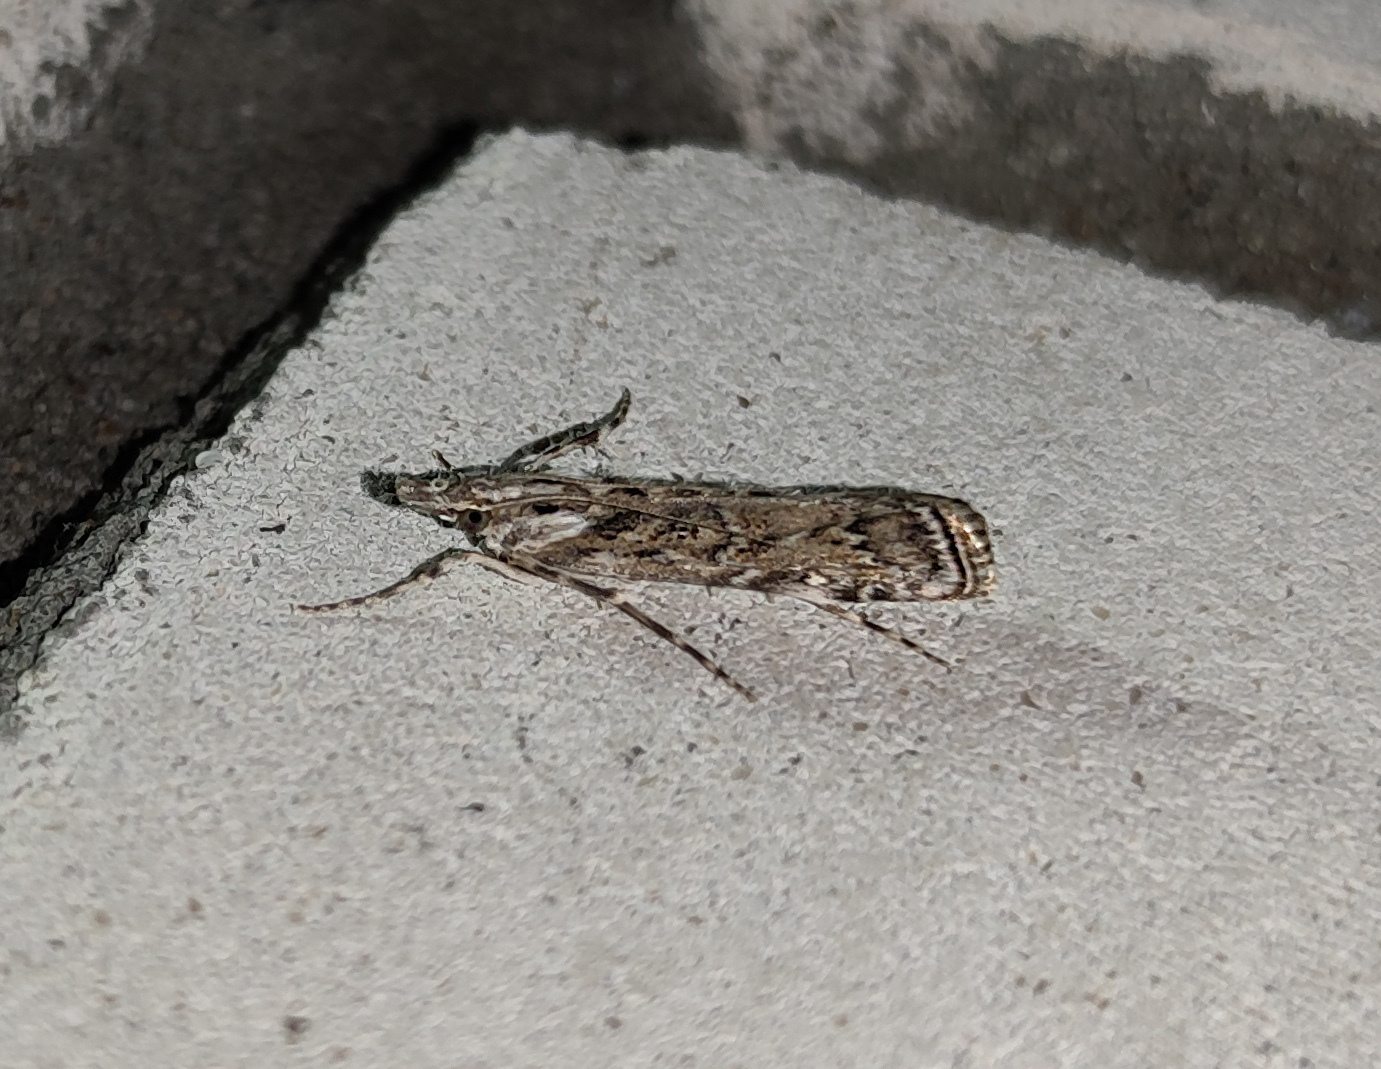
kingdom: Animalia
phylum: Arthropoda
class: Insecta
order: Lepidoptera
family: Crambidae
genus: Talis
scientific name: Talis quercella
